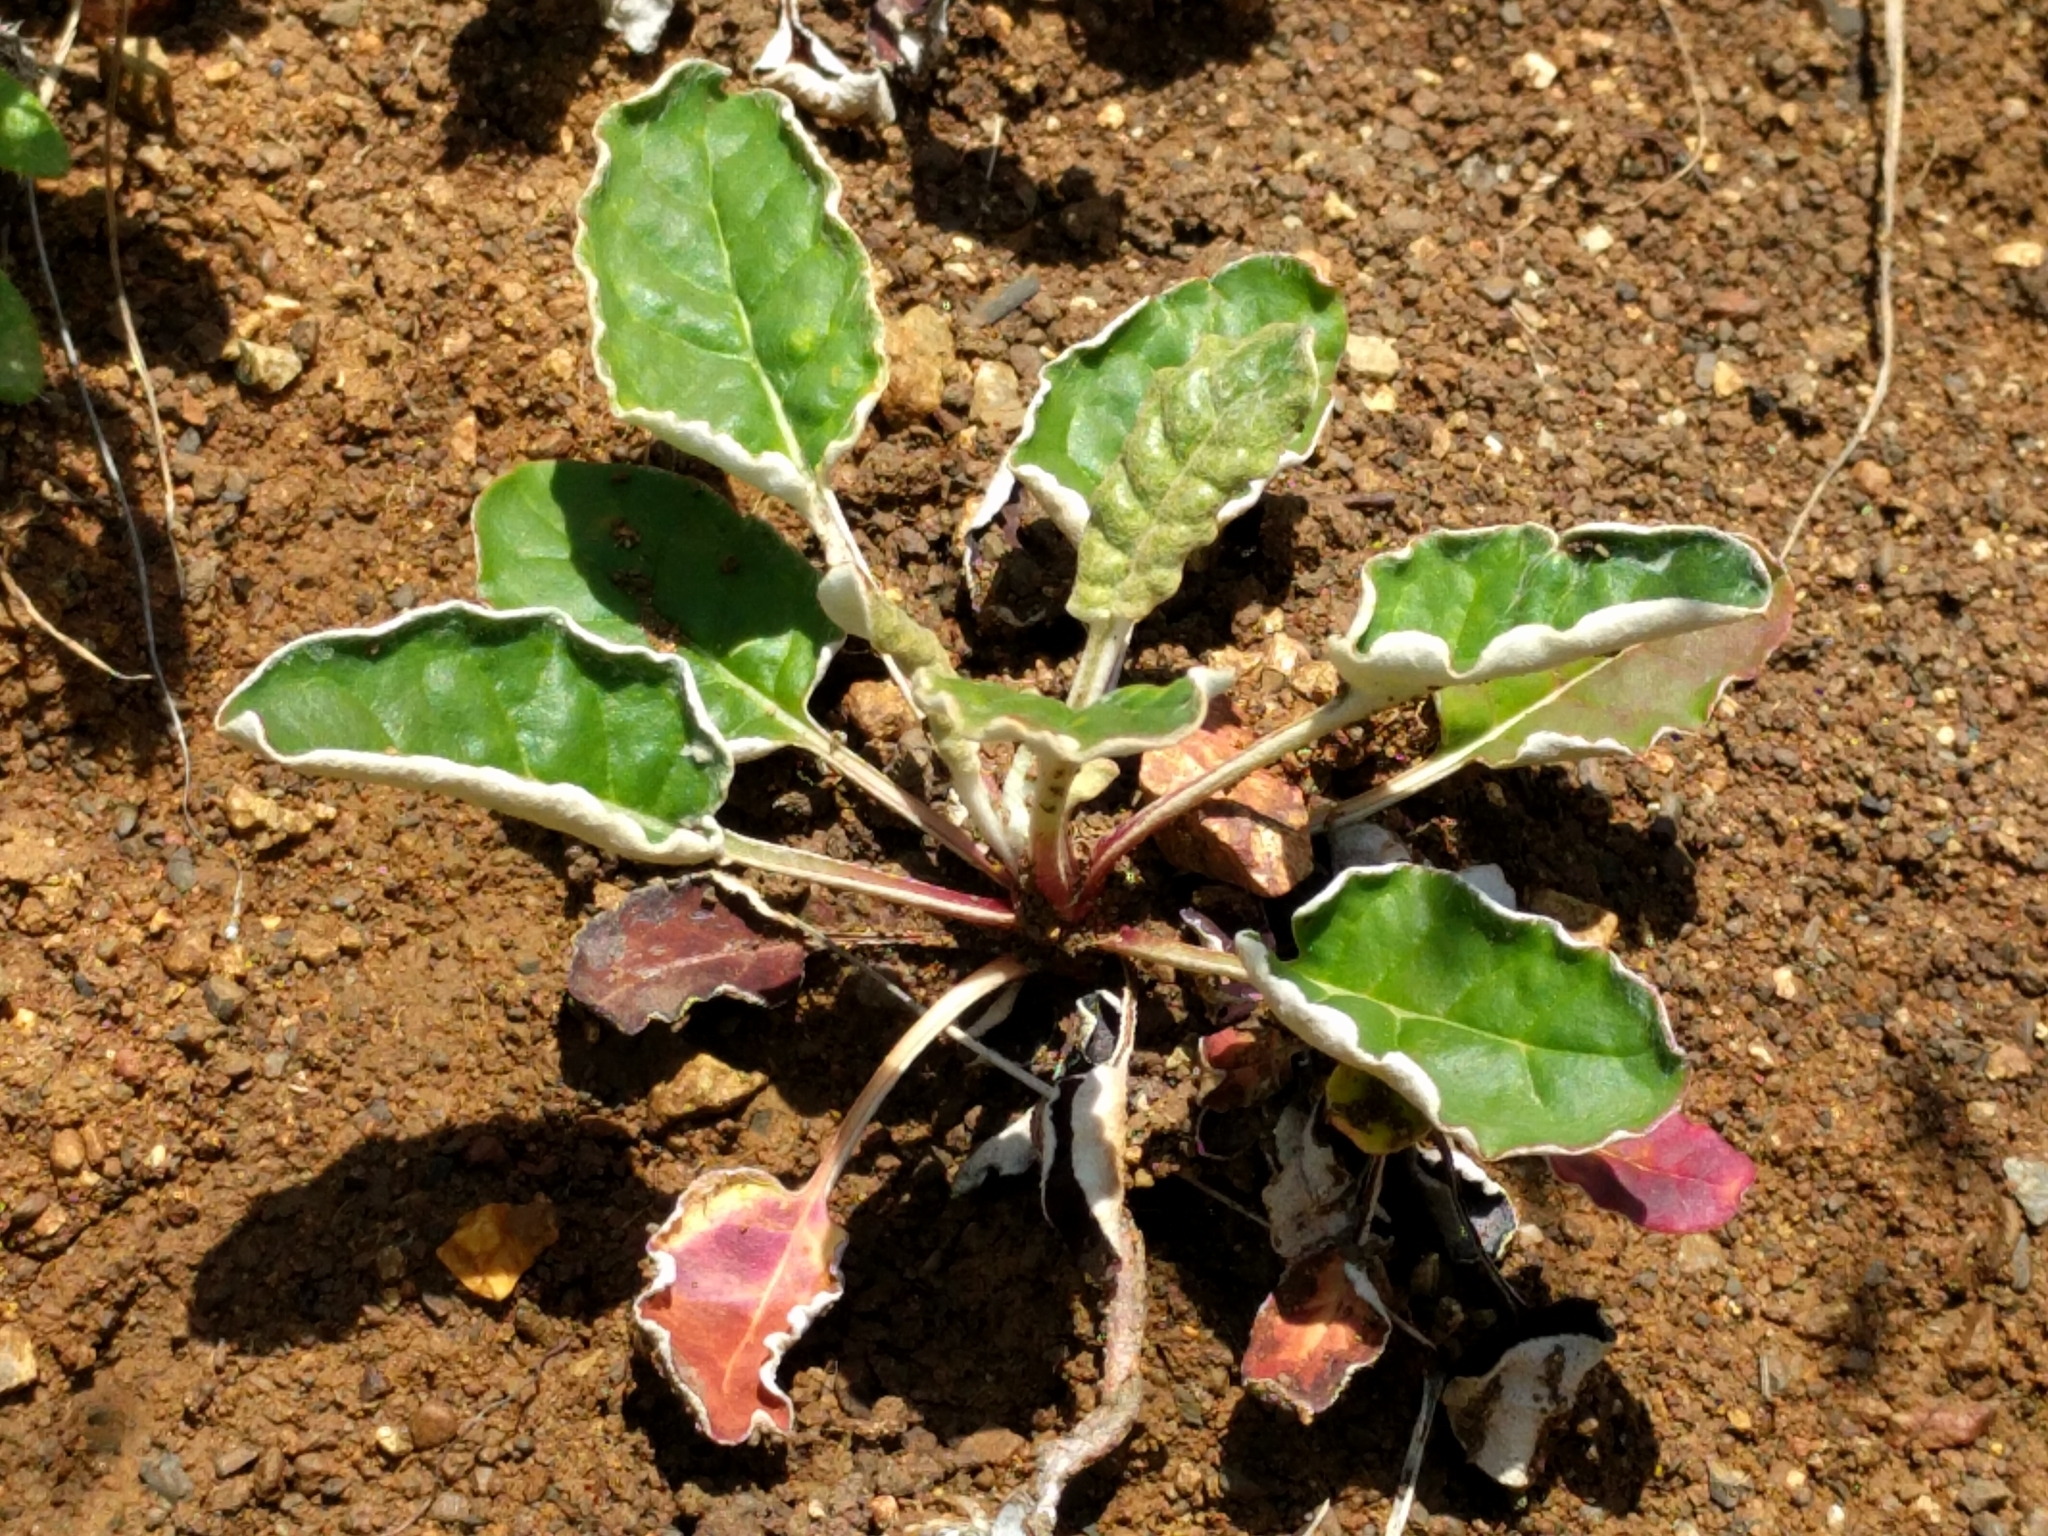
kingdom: Plantae
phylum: Tracheophyta
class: Magnoliopsida
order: Caryophyllales
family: Polygonaceae
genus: Eriogonum
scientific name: Eriogonum nudum
